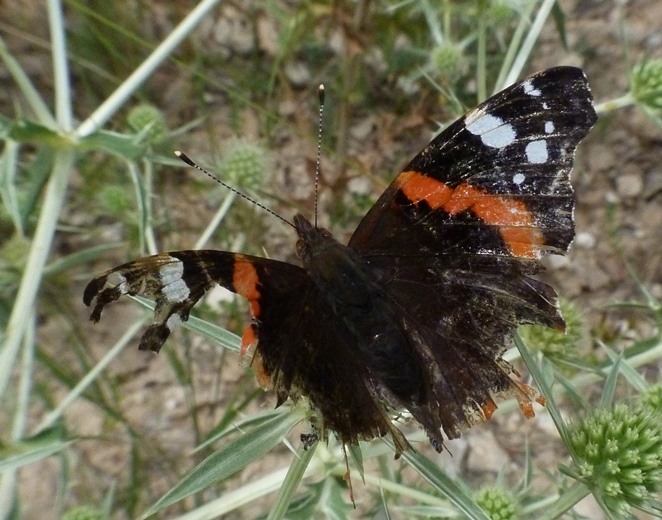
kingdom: Animalia
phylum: Arthropoda
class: Insecta
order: Lepidoptera
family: Nymphalidae
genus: Vanessa
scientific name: Vanessa atalanta
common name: Red admiral
